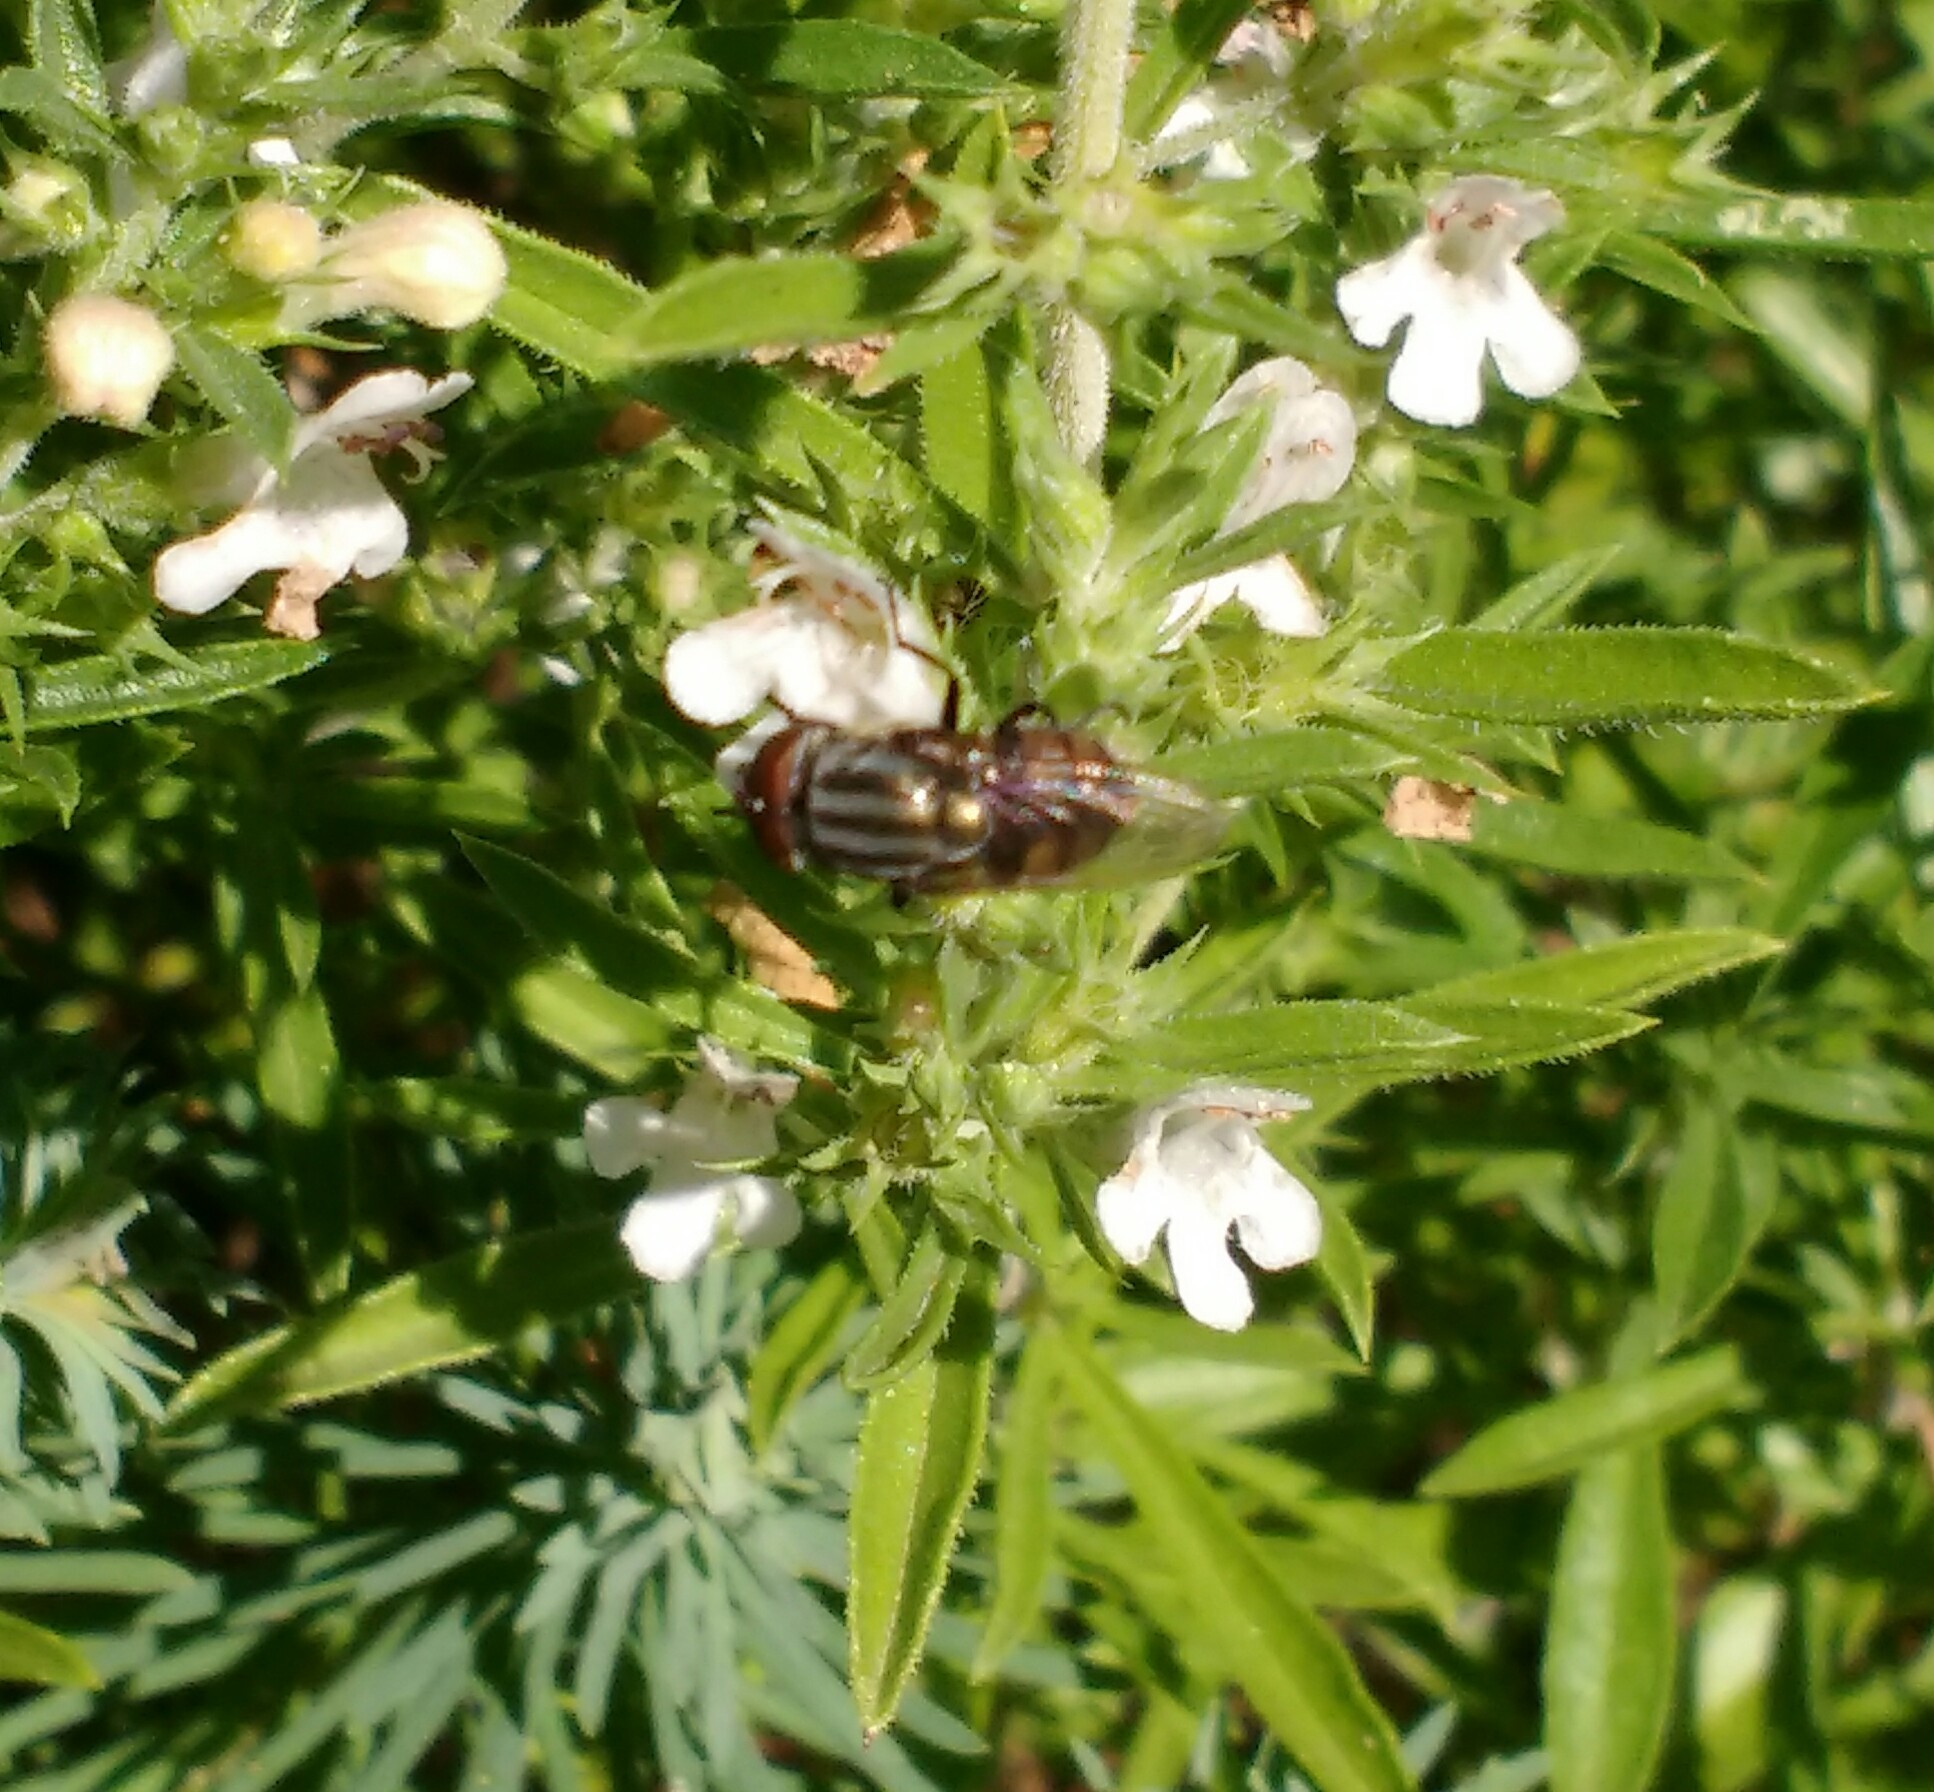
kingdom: Animalia
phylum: Arthropoda
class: Insecta
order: Diptera
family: Calliphoridae
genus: Stomorhina
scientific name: Stomorhina lunata
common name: Locust blowfly
